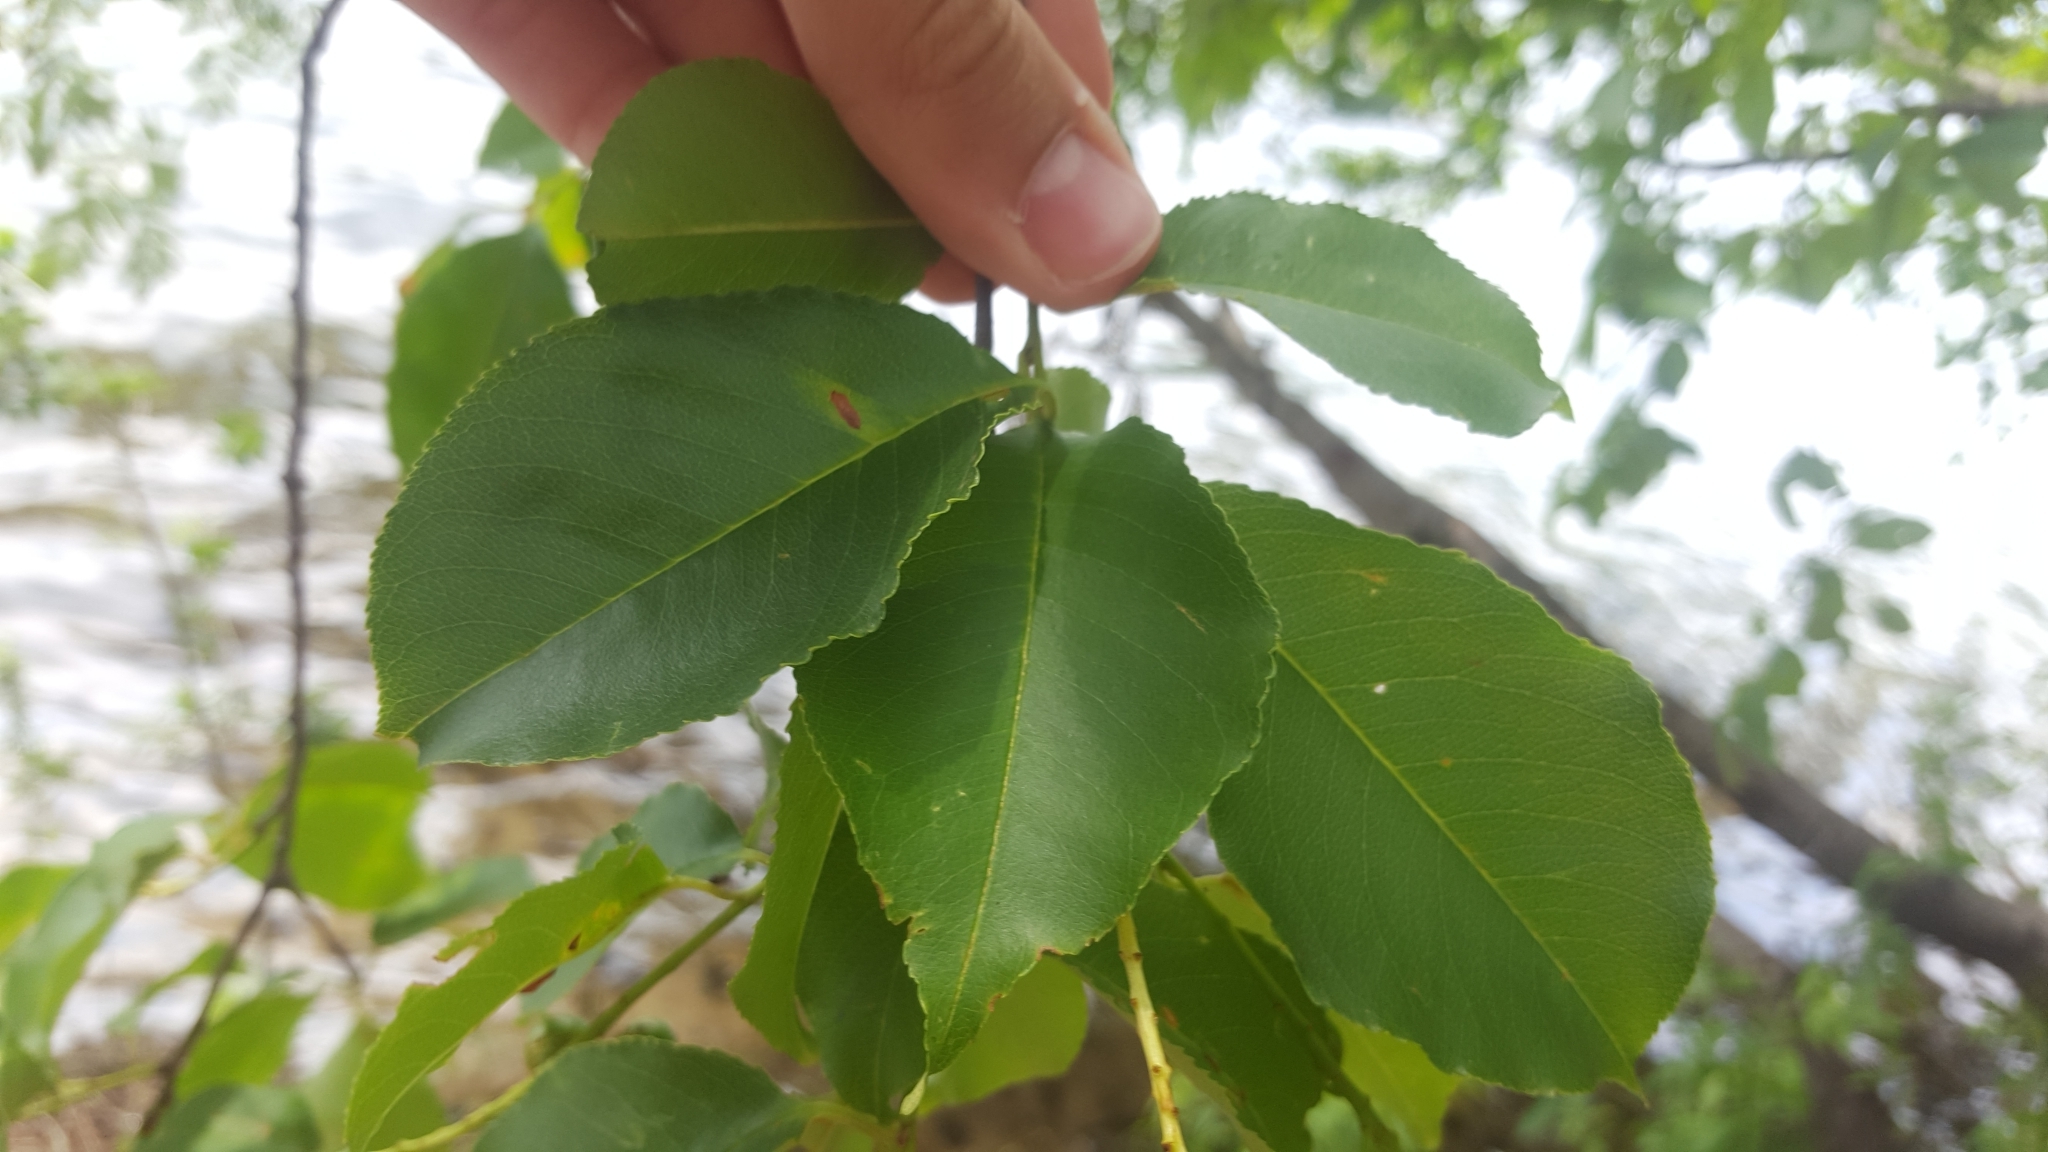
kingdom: Plantae
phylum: Tracheophyta
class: Magnoliopsida
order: Rosales
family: Rosaceae
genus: Prunus
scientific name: Prunus serotina
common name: Black cherry
